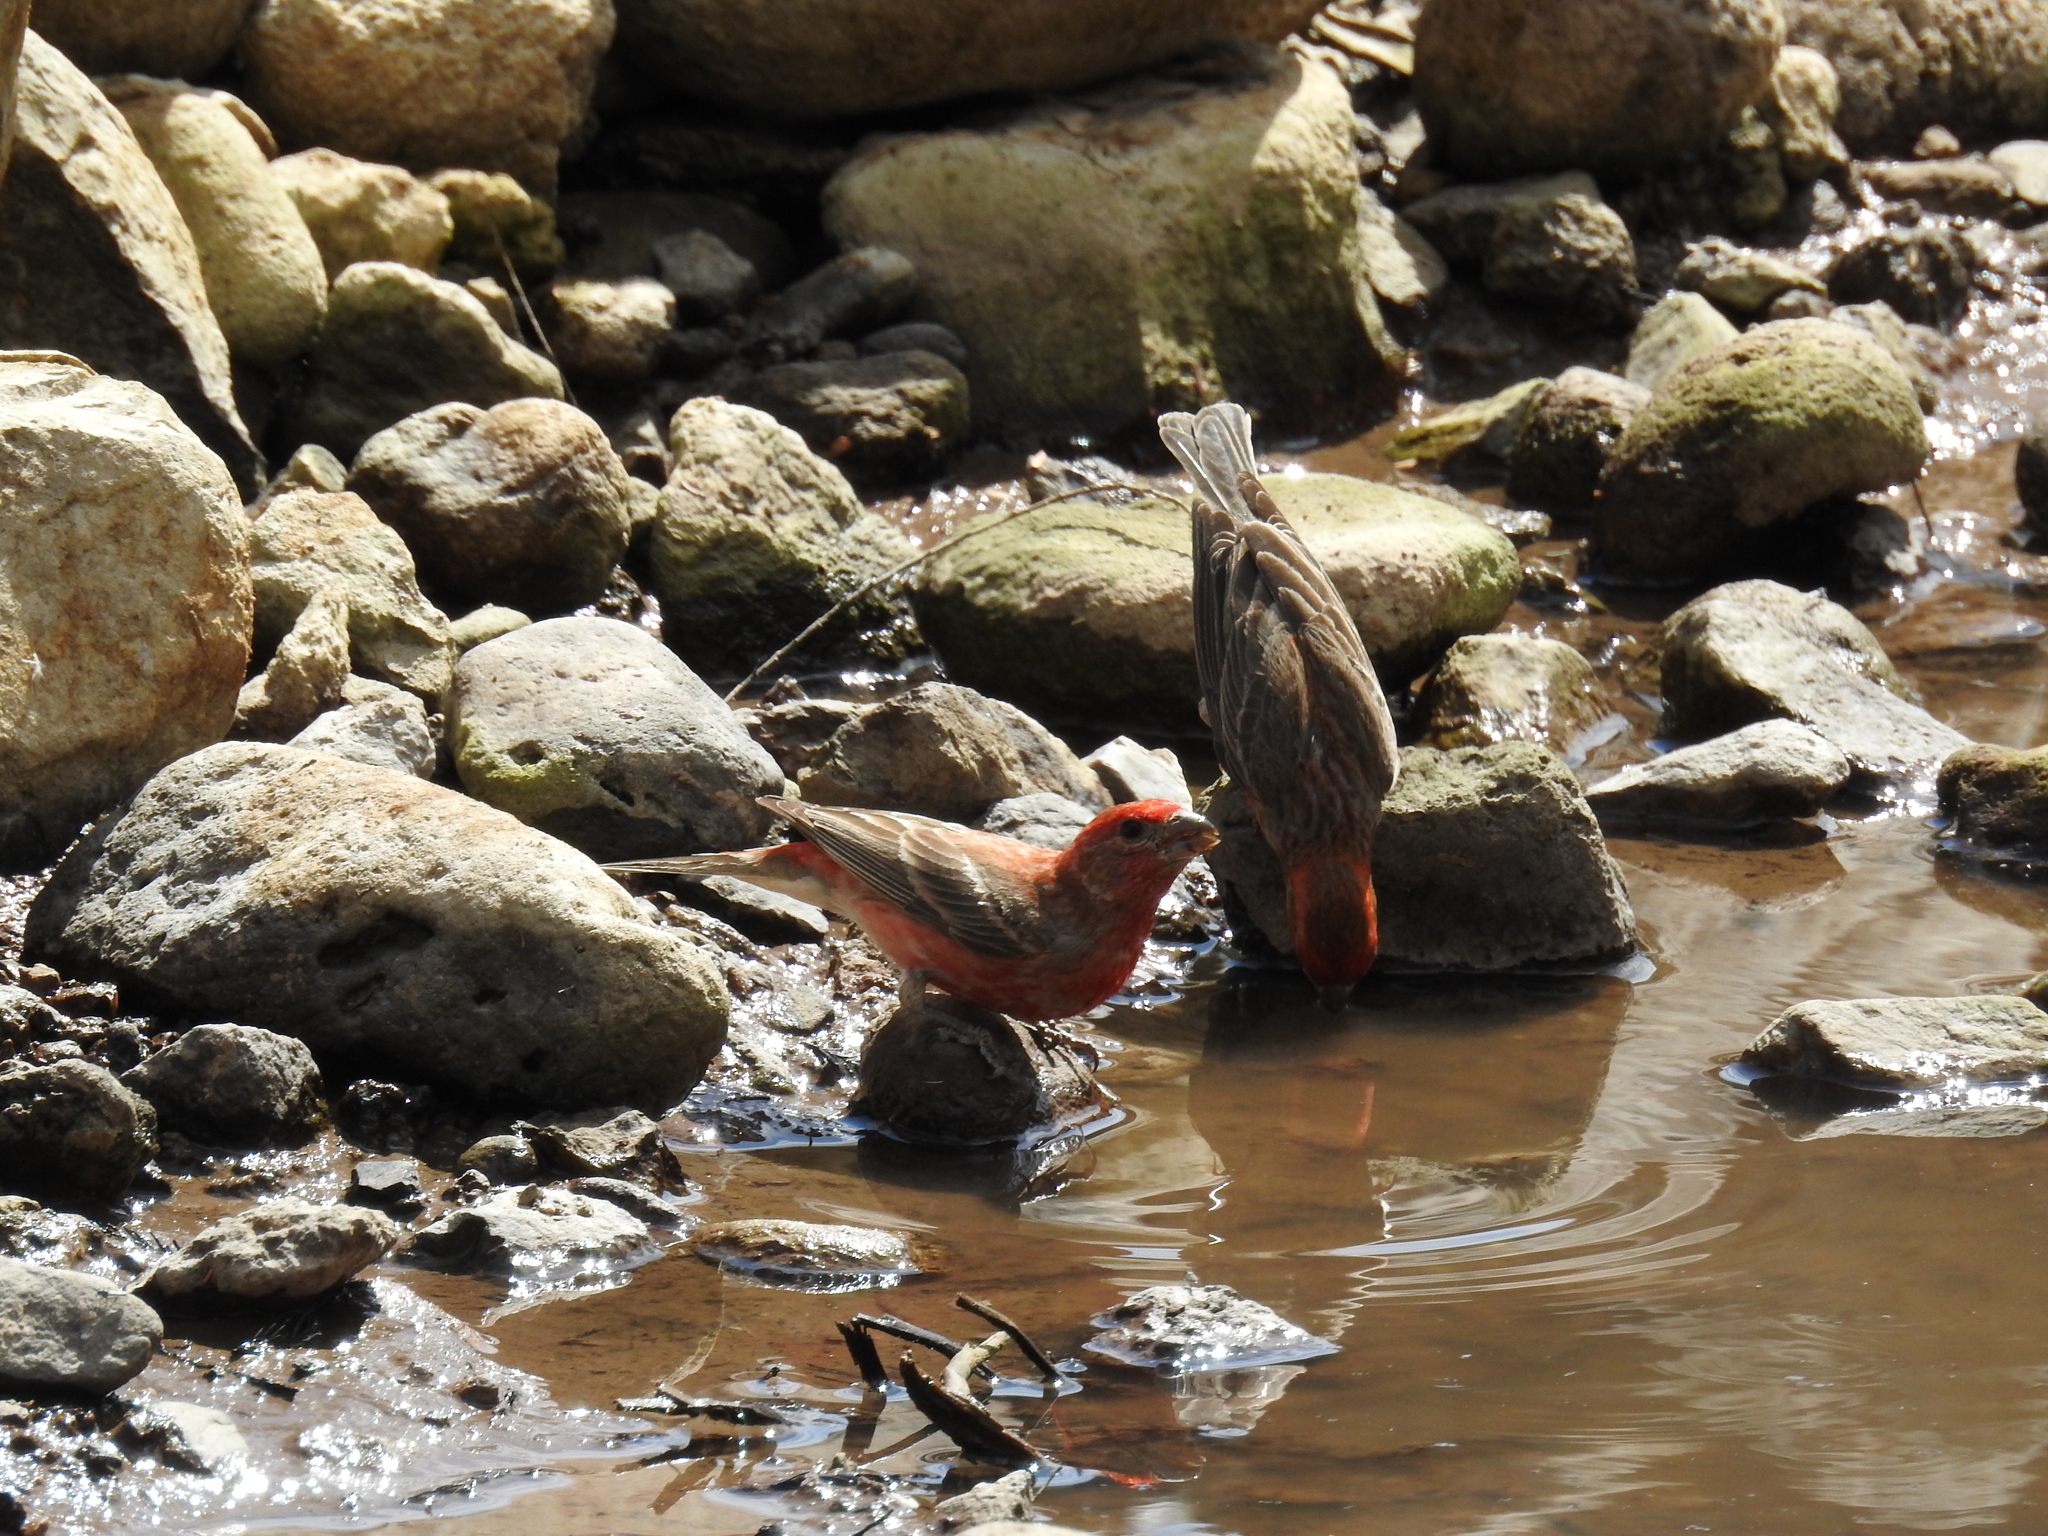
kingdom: Animalia
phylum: Chordata
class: Aves
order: Passeriformes
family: Fringillidae
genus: Haemorhous
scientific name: Haemorhous mexicanus
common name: House finch
